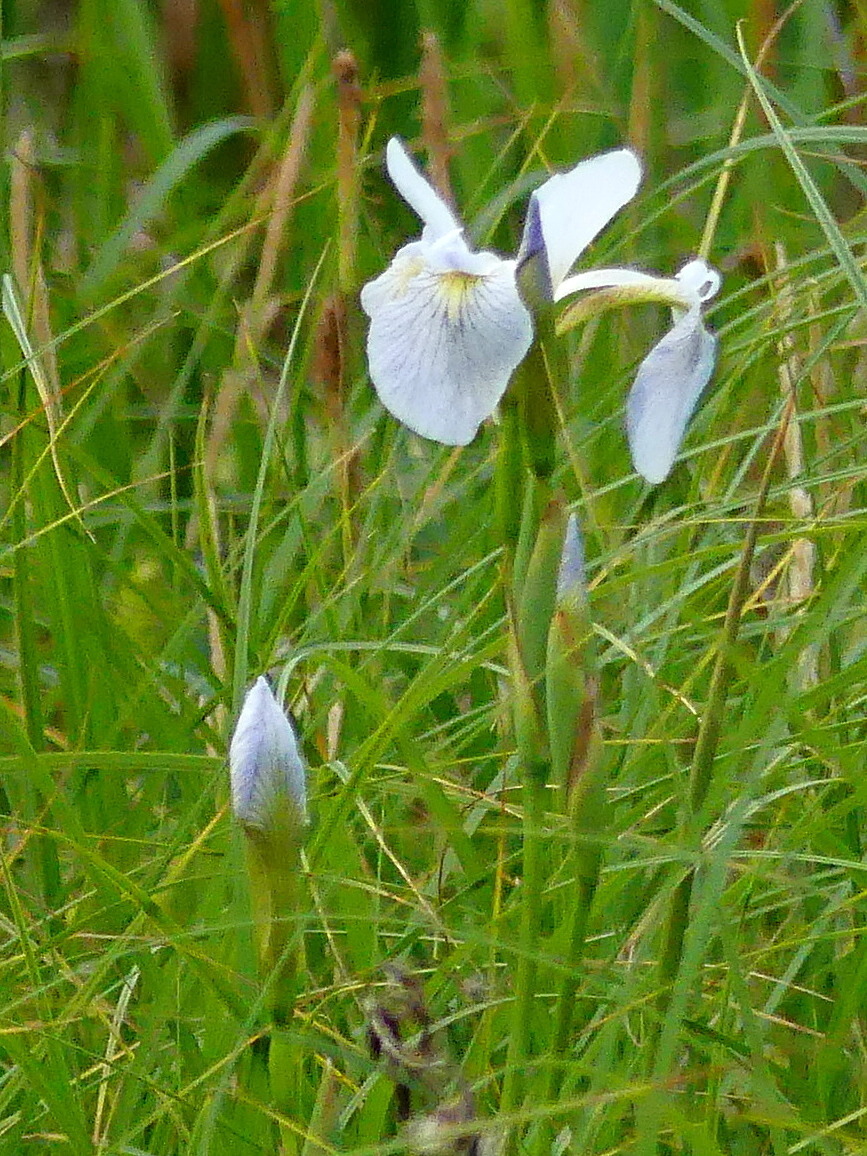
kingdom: Plantae
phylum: Tracheophyta
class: Liliopsida
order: Asparagales
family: Iridaceae
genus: Iris
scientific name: Iris versicolor
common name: Purple iris
